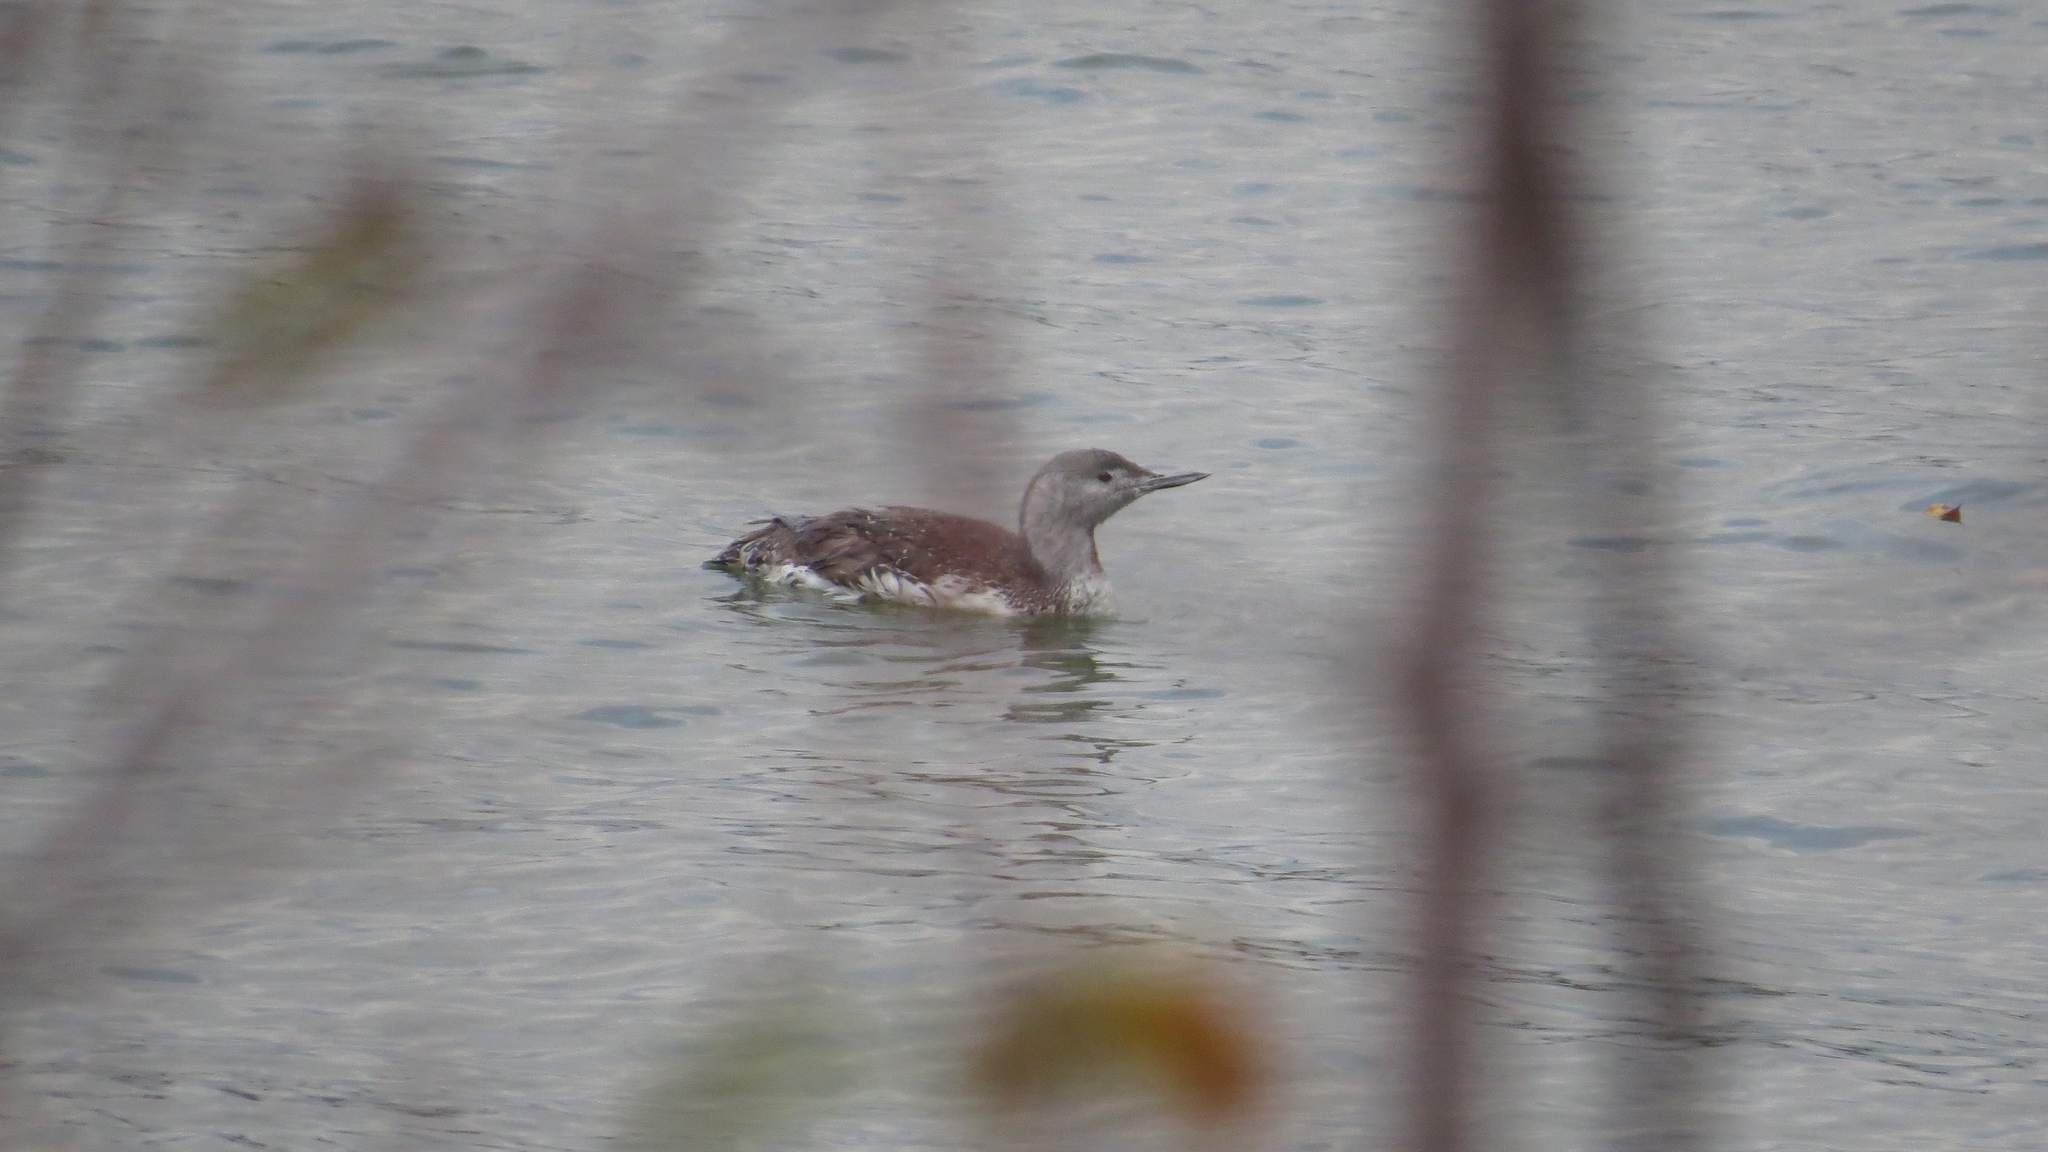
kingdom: Animalia
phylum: Chordata
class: Aves
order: Gaviiformes
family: Gaviidae
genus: Gavia
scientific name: Gavia stellata
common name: Red-throated loon
